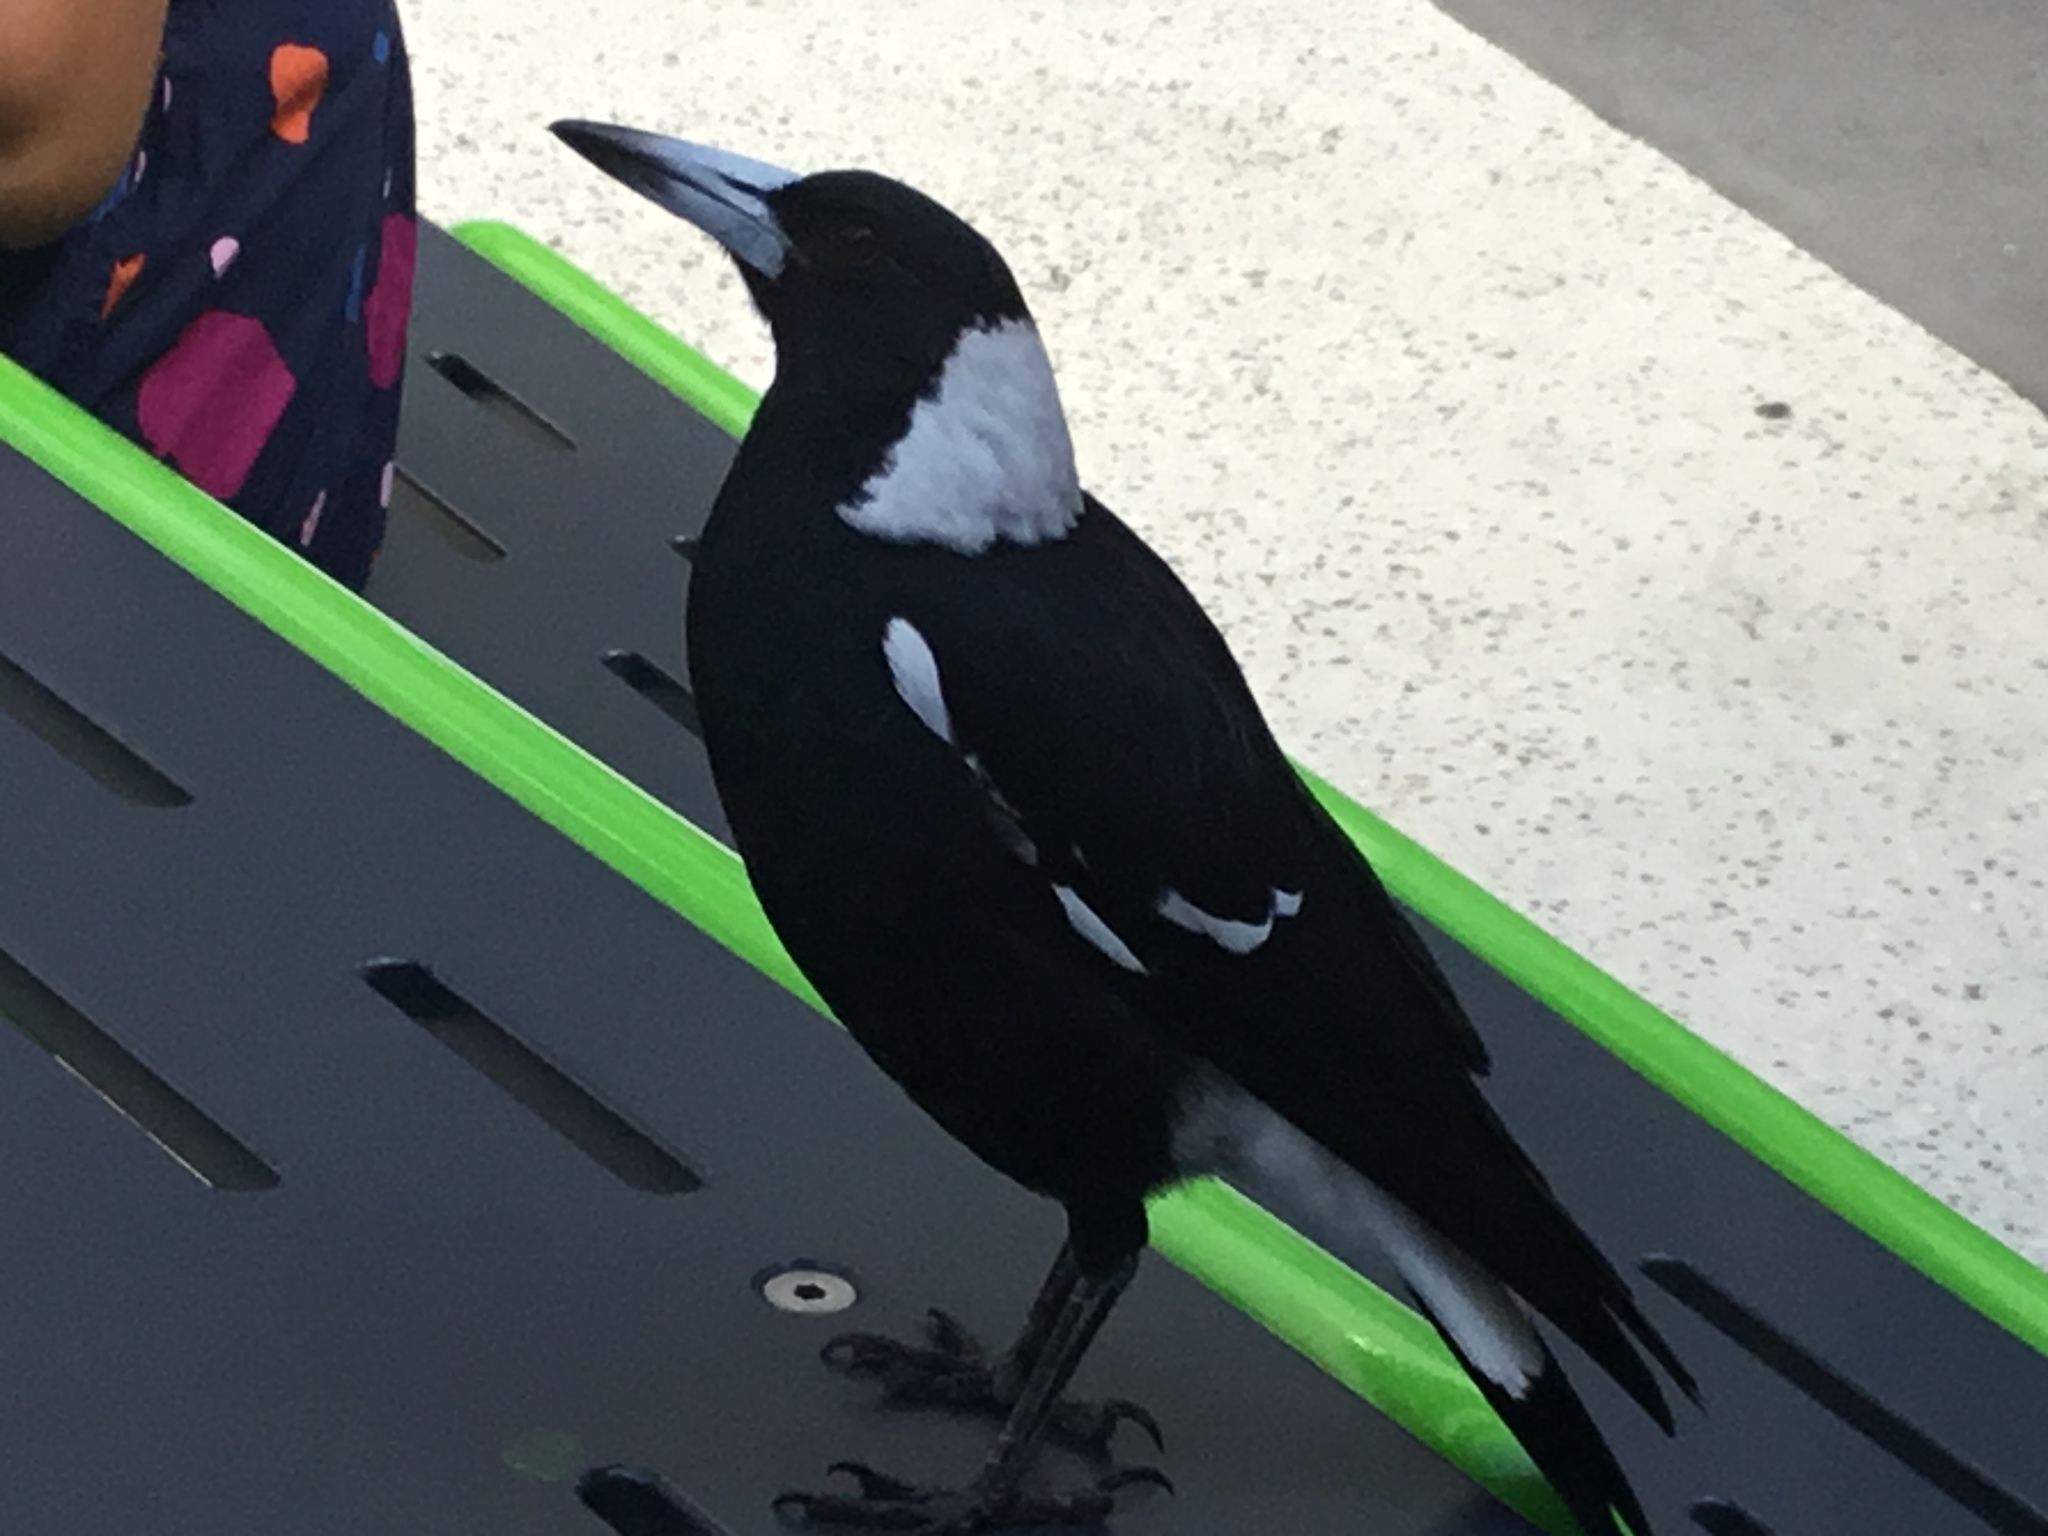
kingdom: Animalia
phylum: Chordata
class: Aves
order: Passeriformes
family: Cracticidae
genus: Gymnorhina
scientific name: Gymnorhina tibicen
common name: Australian magpie
